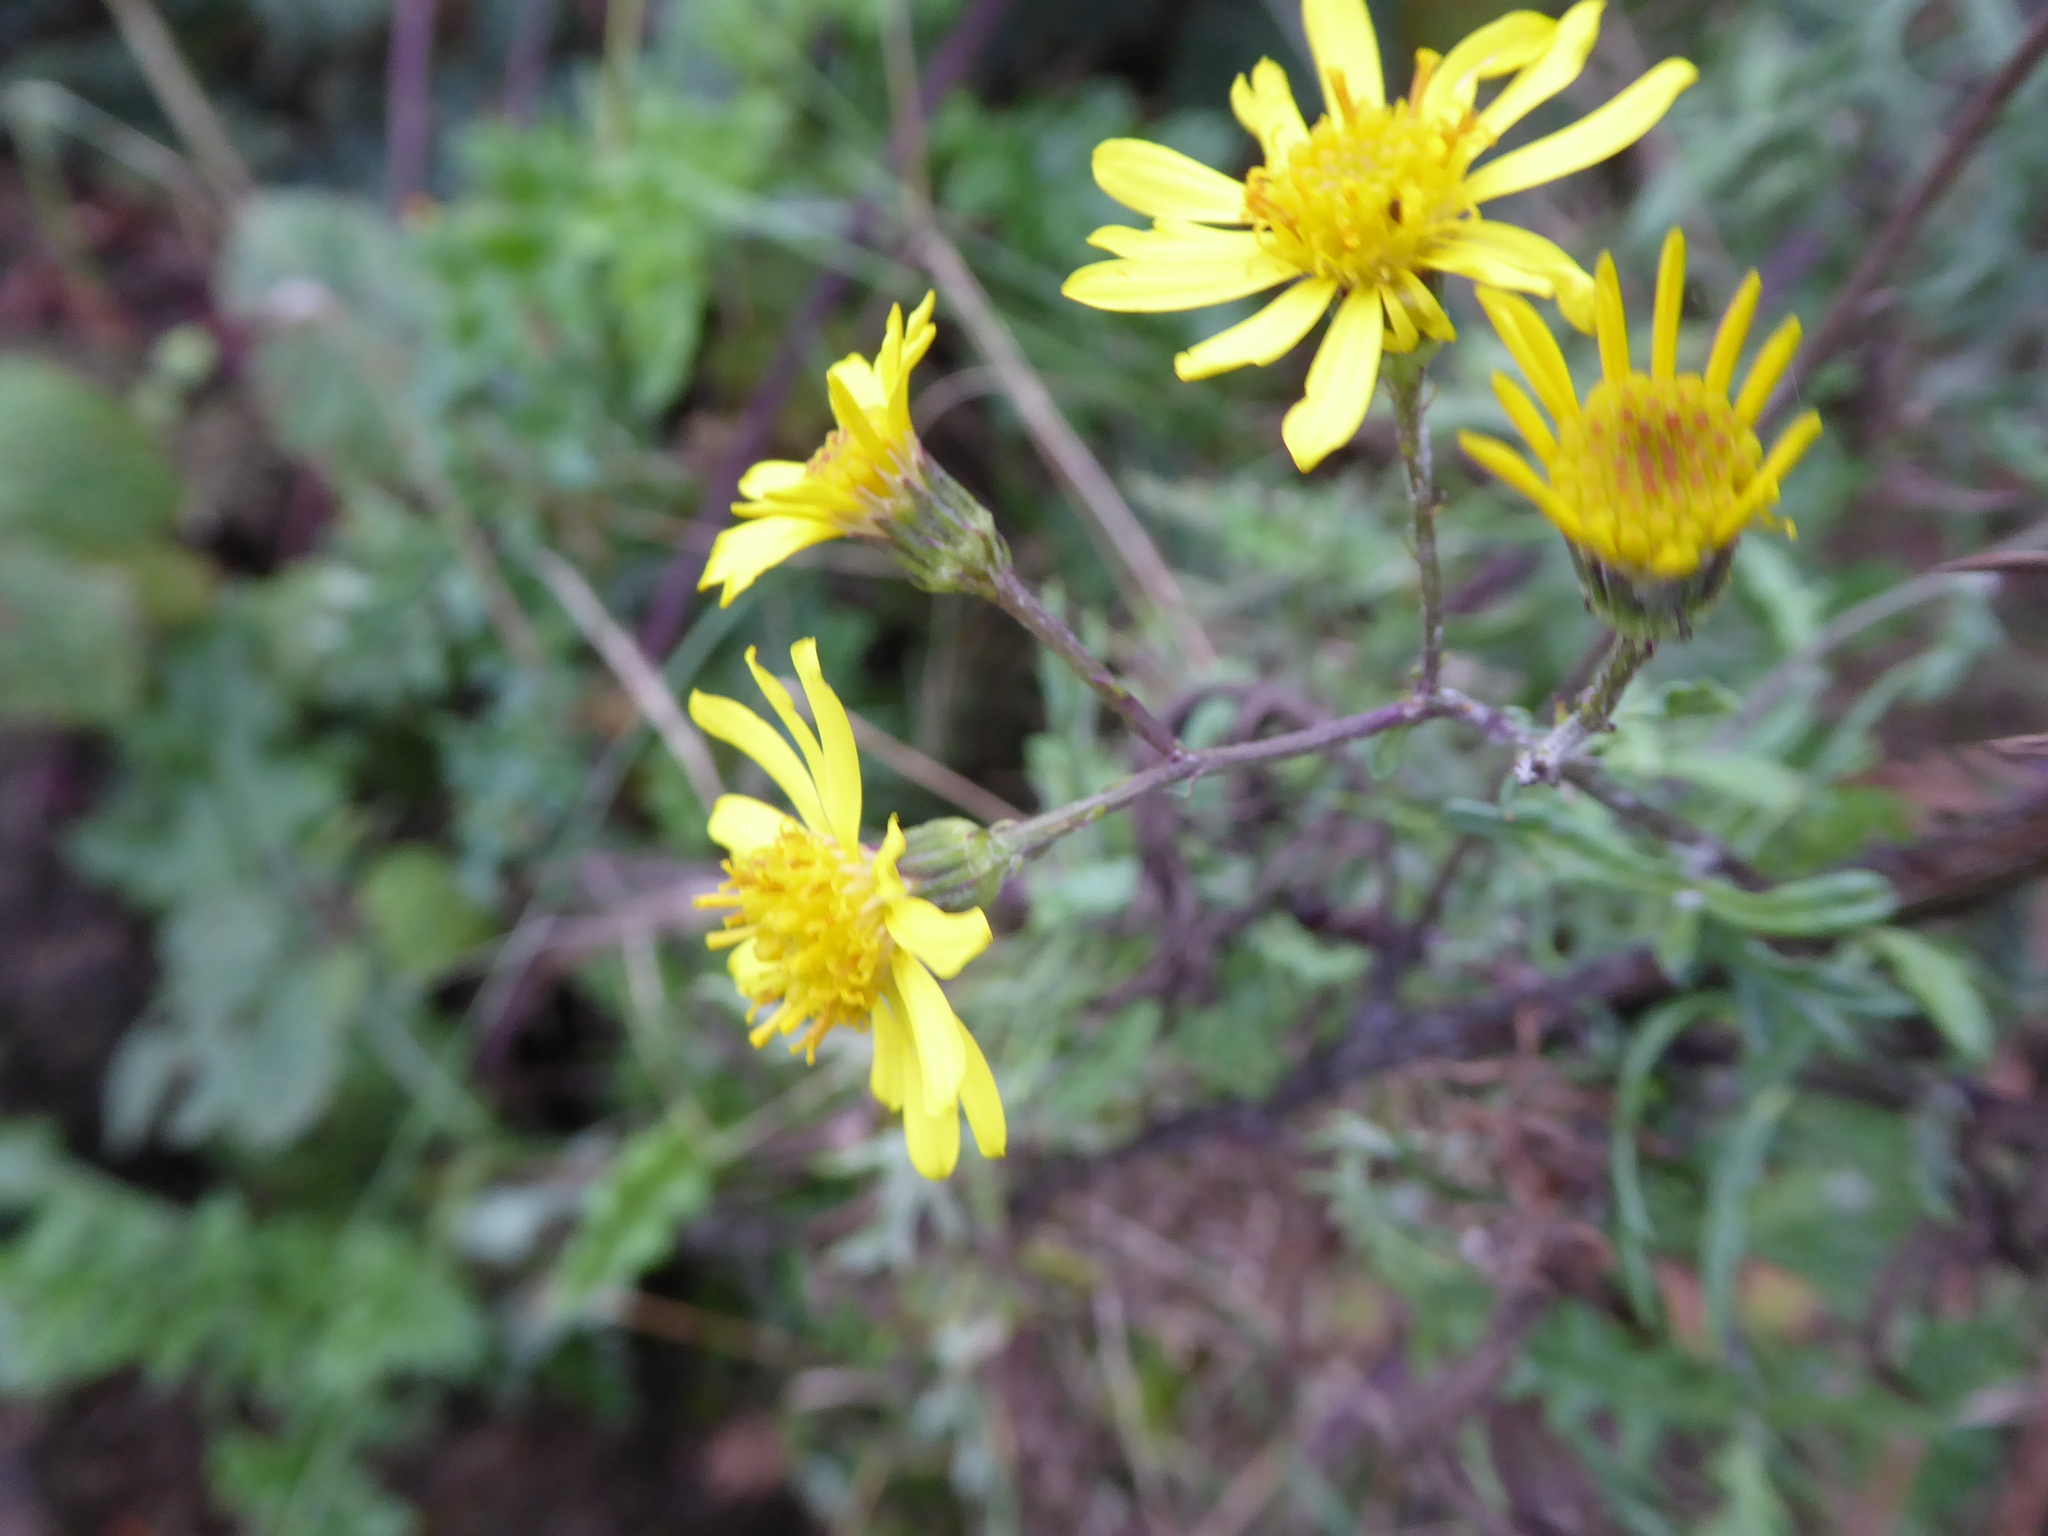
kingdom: Plantae
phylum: Tracheophyta
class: Magnoliopsida
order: Asterales
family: Asteraceae
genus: Jacobaea
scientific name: Jacobaea vulgaris
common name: Stinking willie
